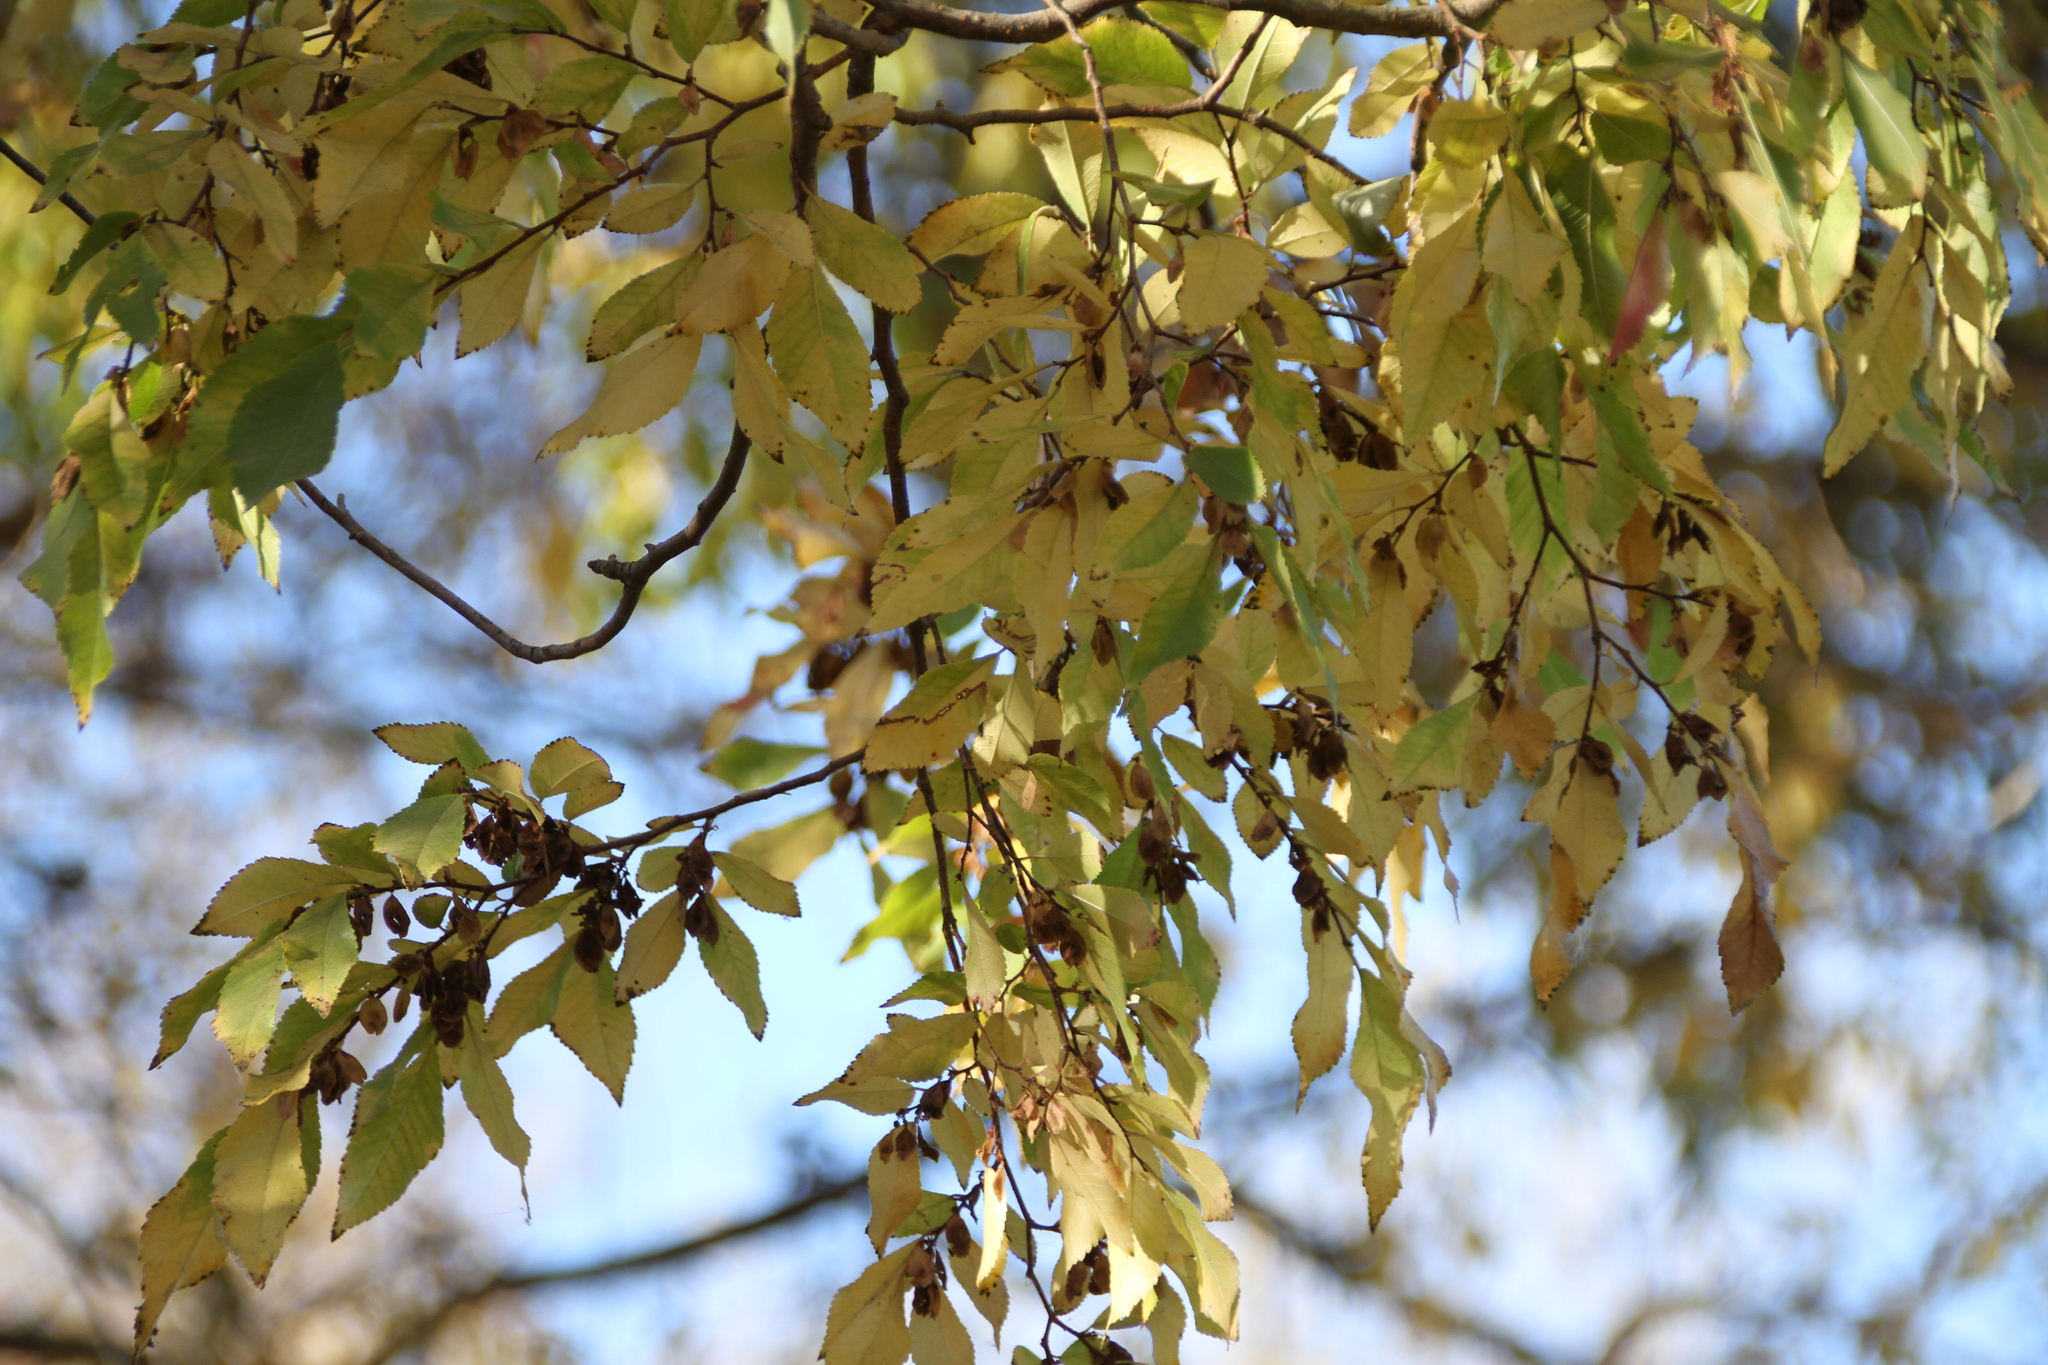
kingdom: Plantae
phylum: Tracheophyta
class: Magnoliopsida
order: Rosales
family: Ulmaceae
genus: Ulmus
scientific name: Ulmus parvifolia
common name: Chinese elm
